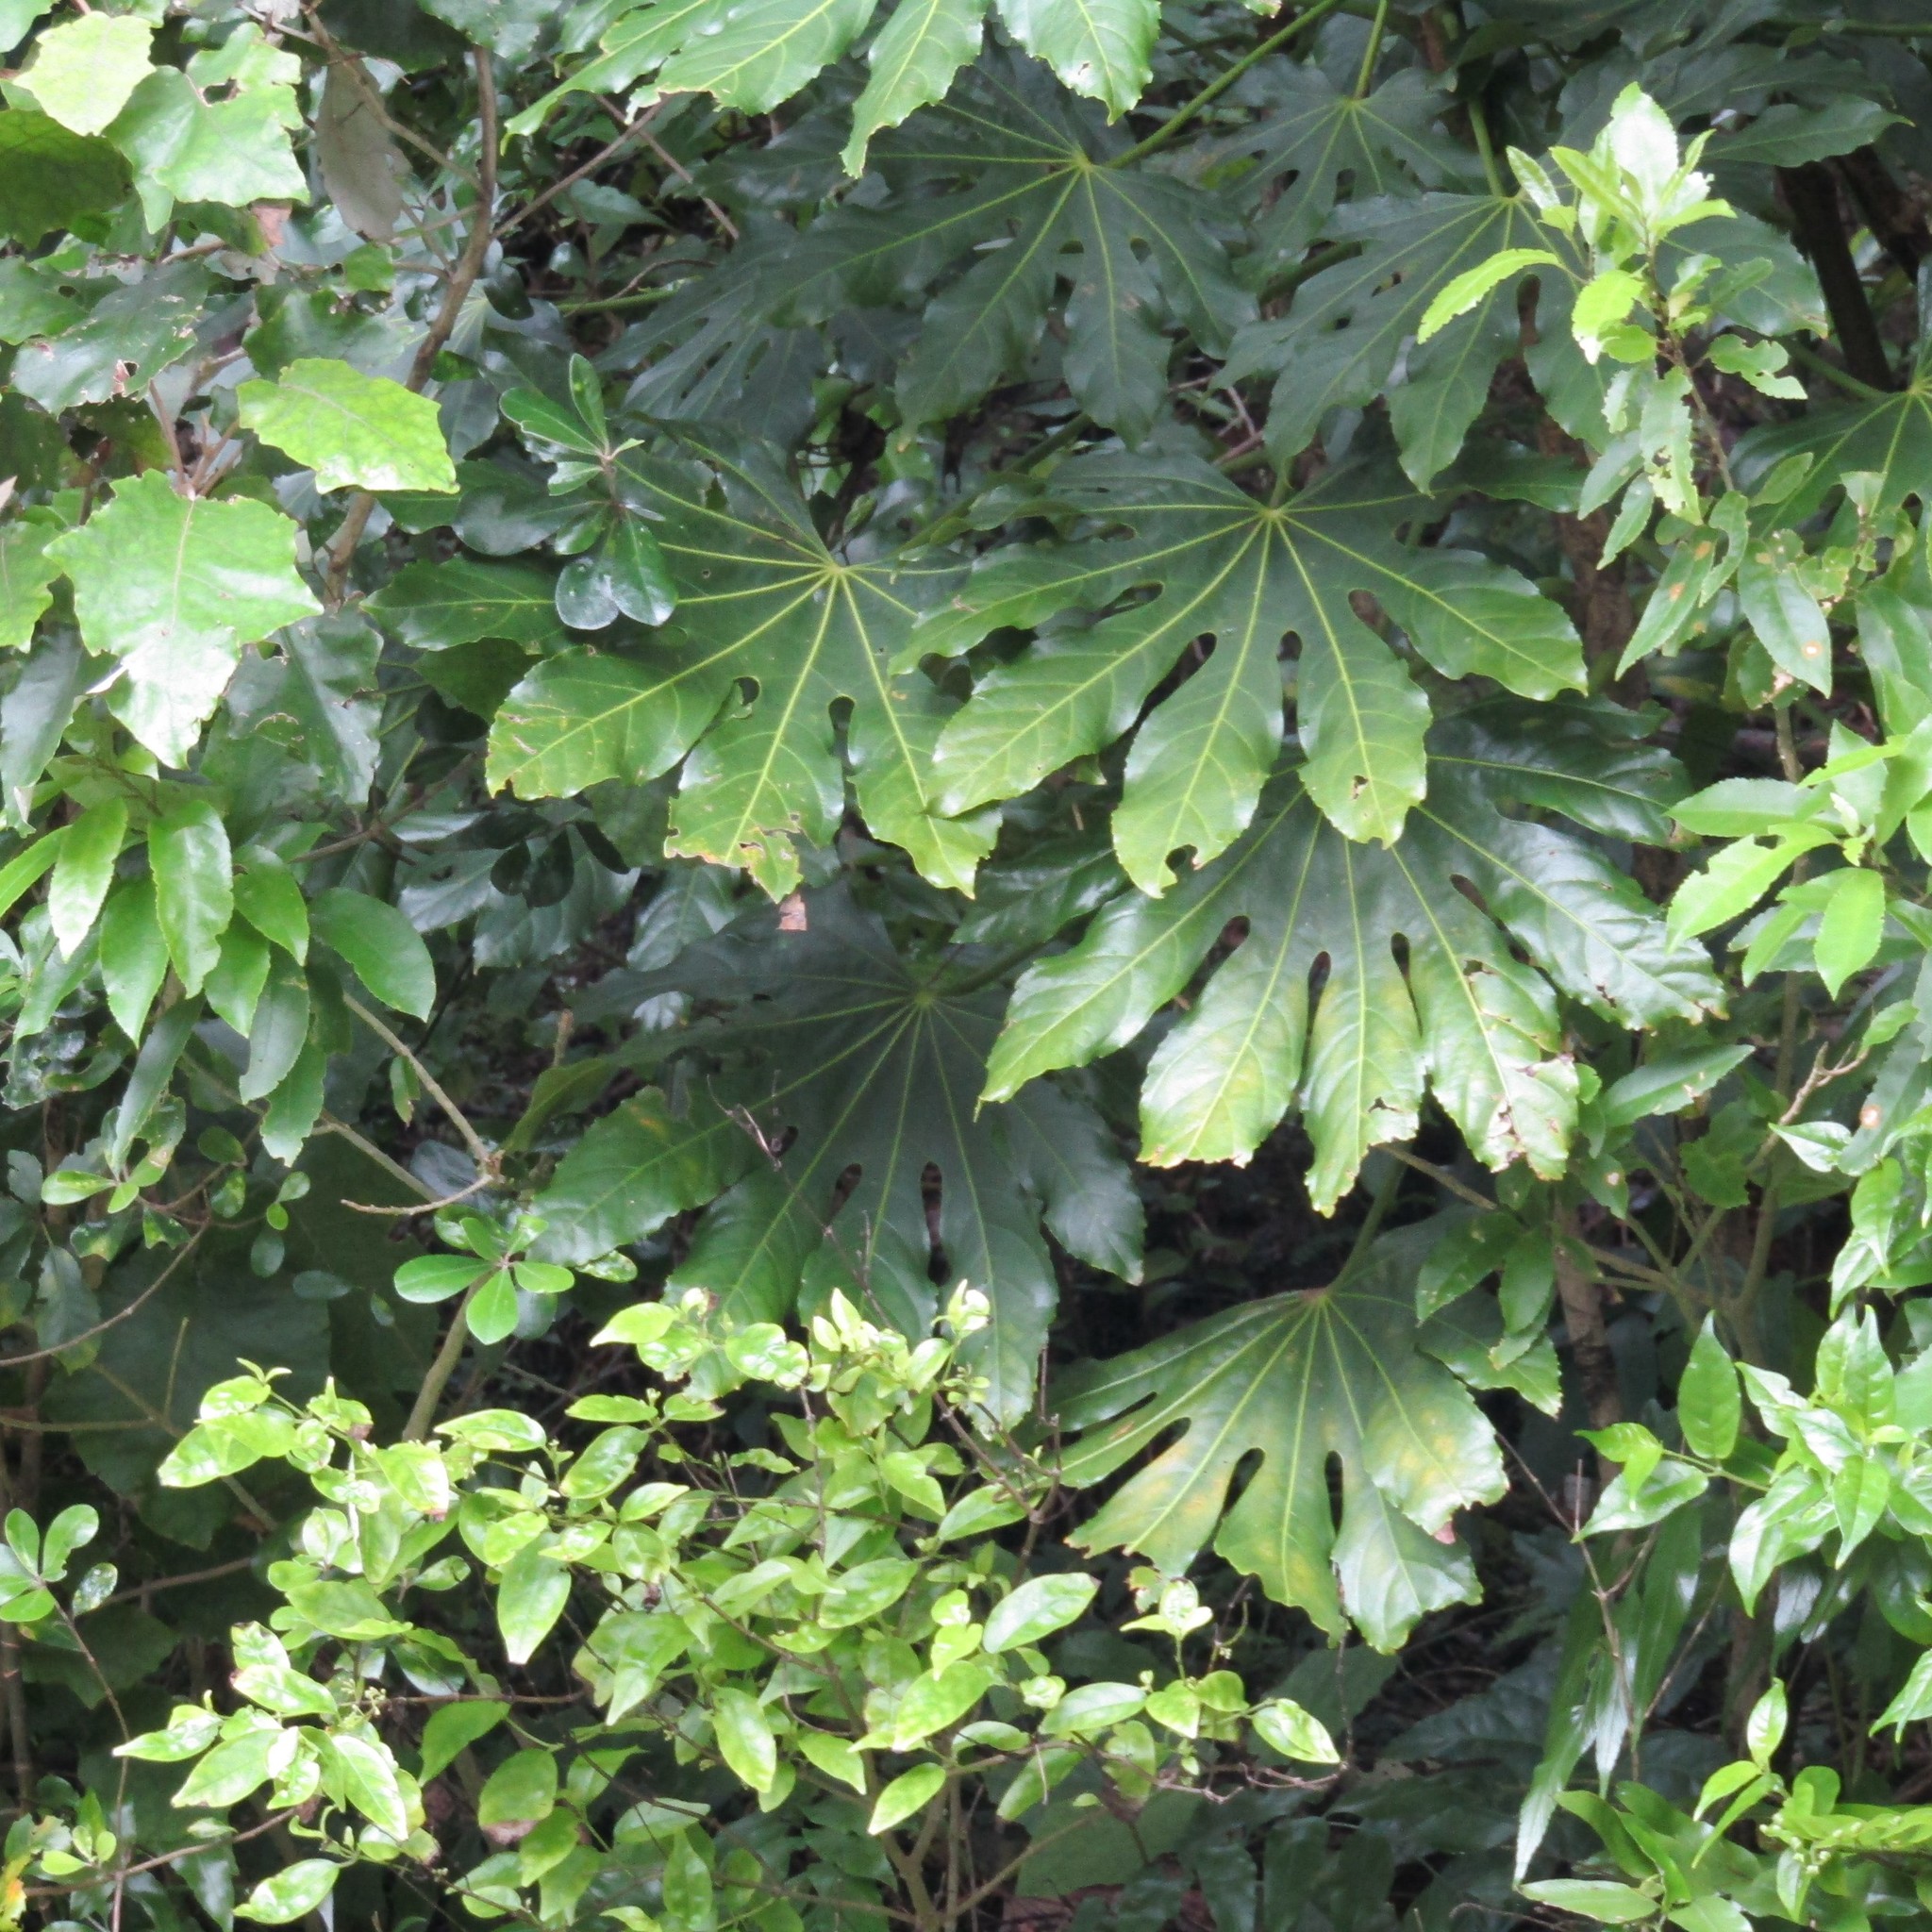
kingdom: Plantae
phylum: Tracheophyta
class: Magnoliopsida
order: Apiales
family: Araliaceae
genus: Fatsia
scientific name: Fatsia japonica
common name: Fatsia
